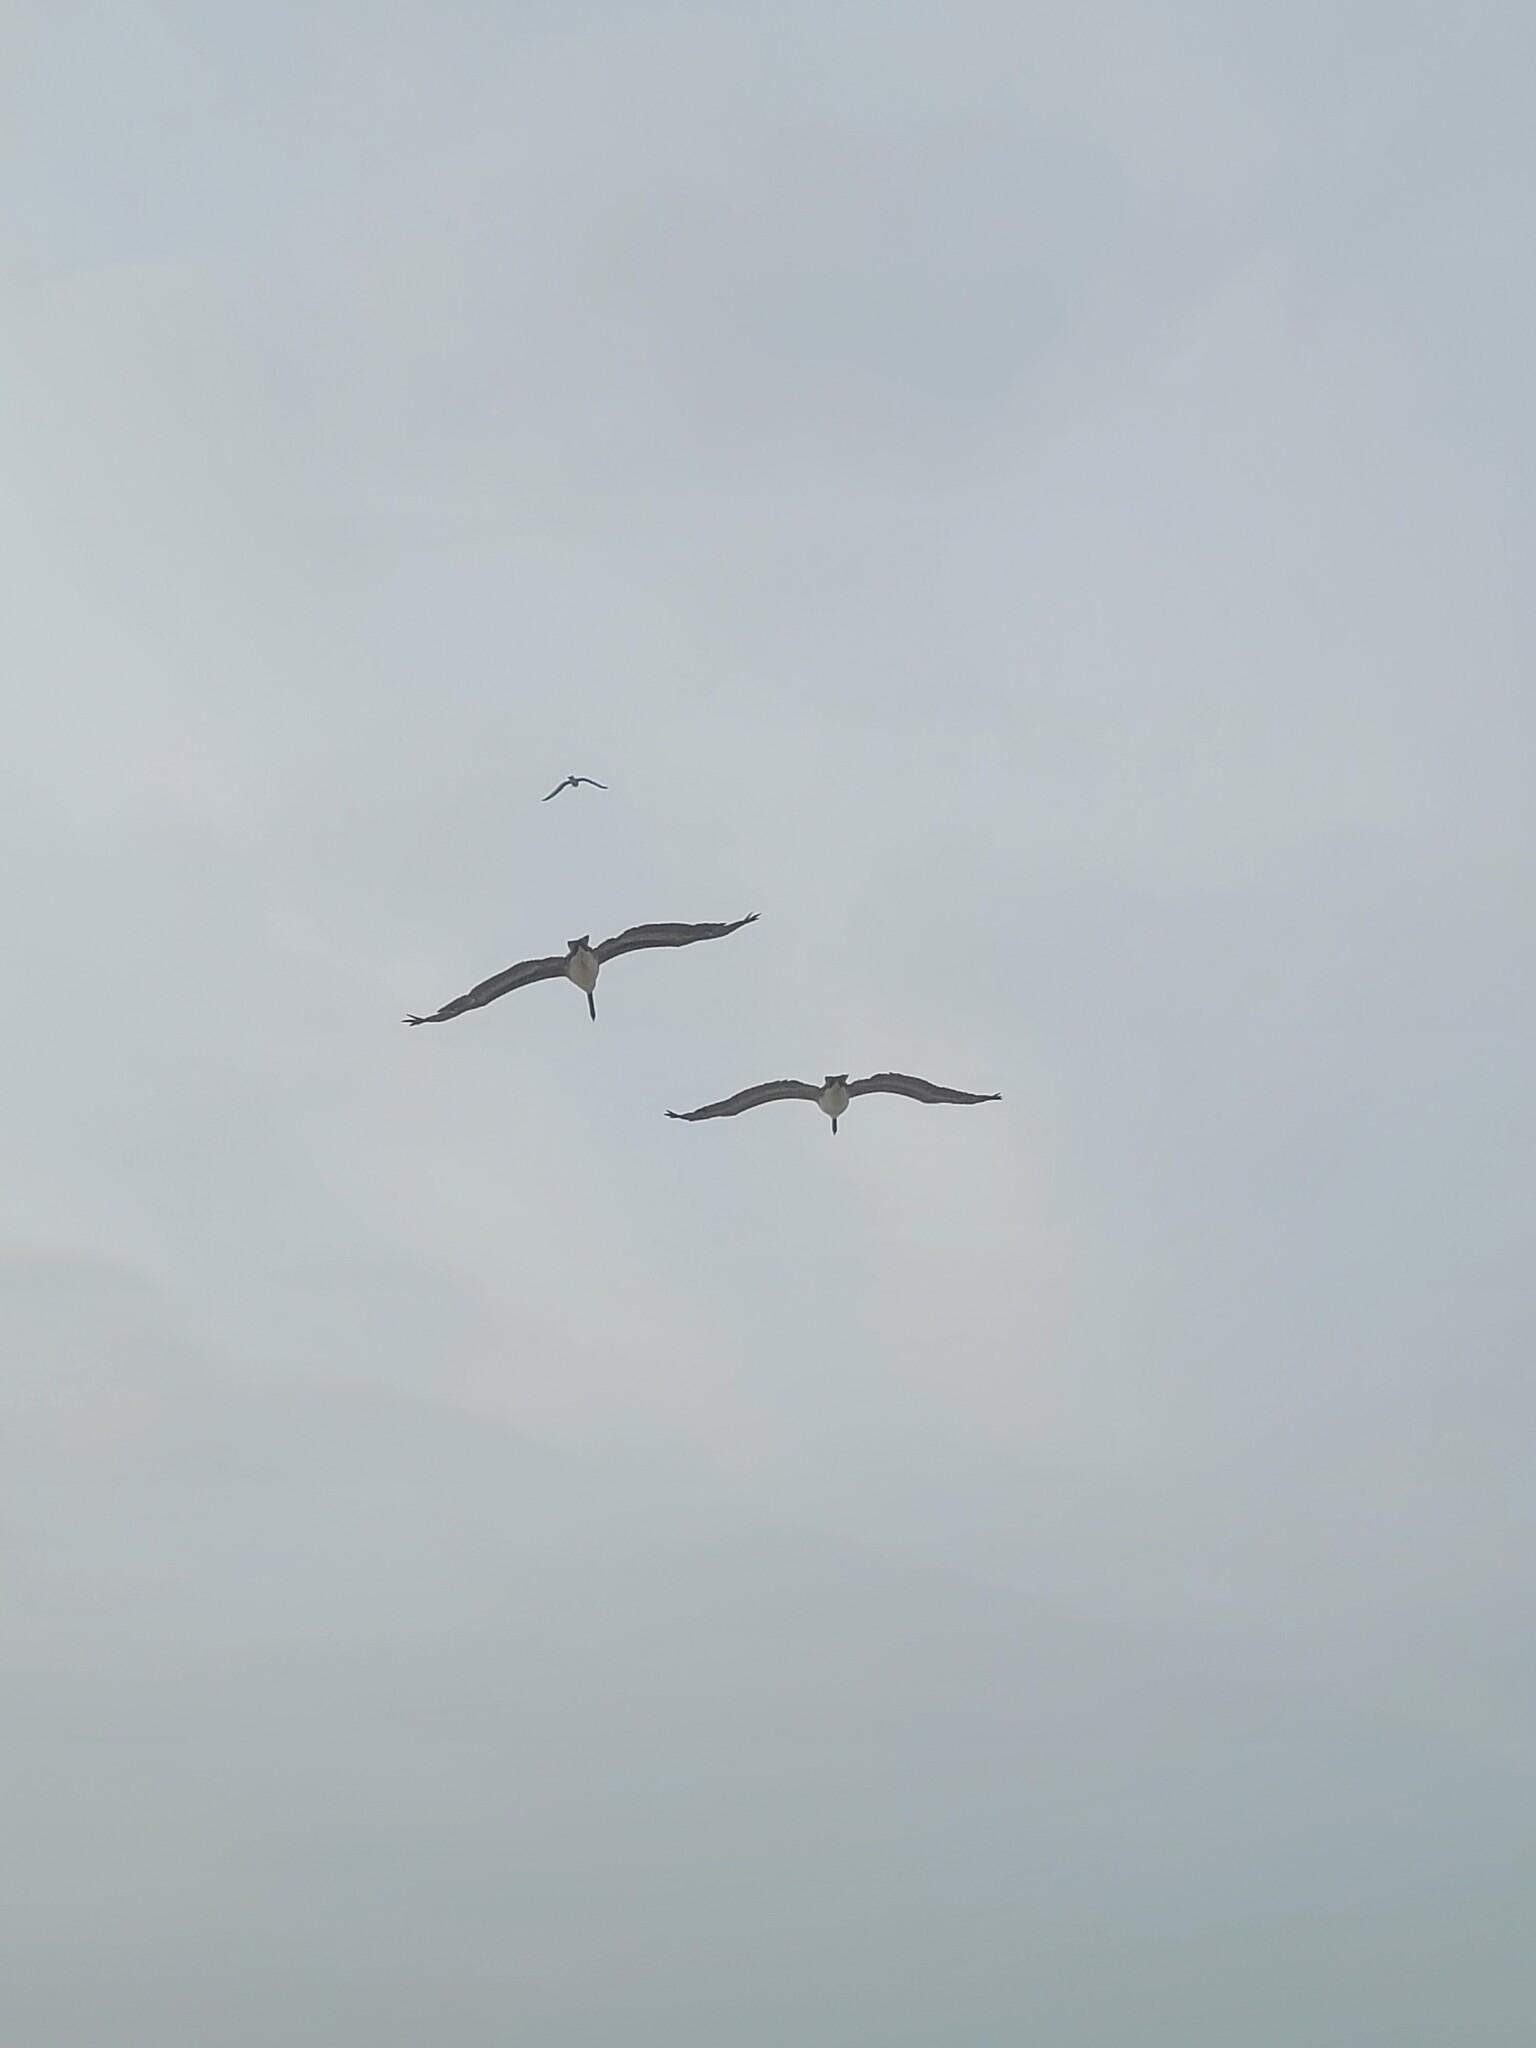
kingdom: Animalia
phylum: Chordata
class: Aves
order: Pelecaniformes
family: Pelecanidae
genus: Pelecanus
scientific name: Pelecanus occidentalis
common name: Brown pelican
